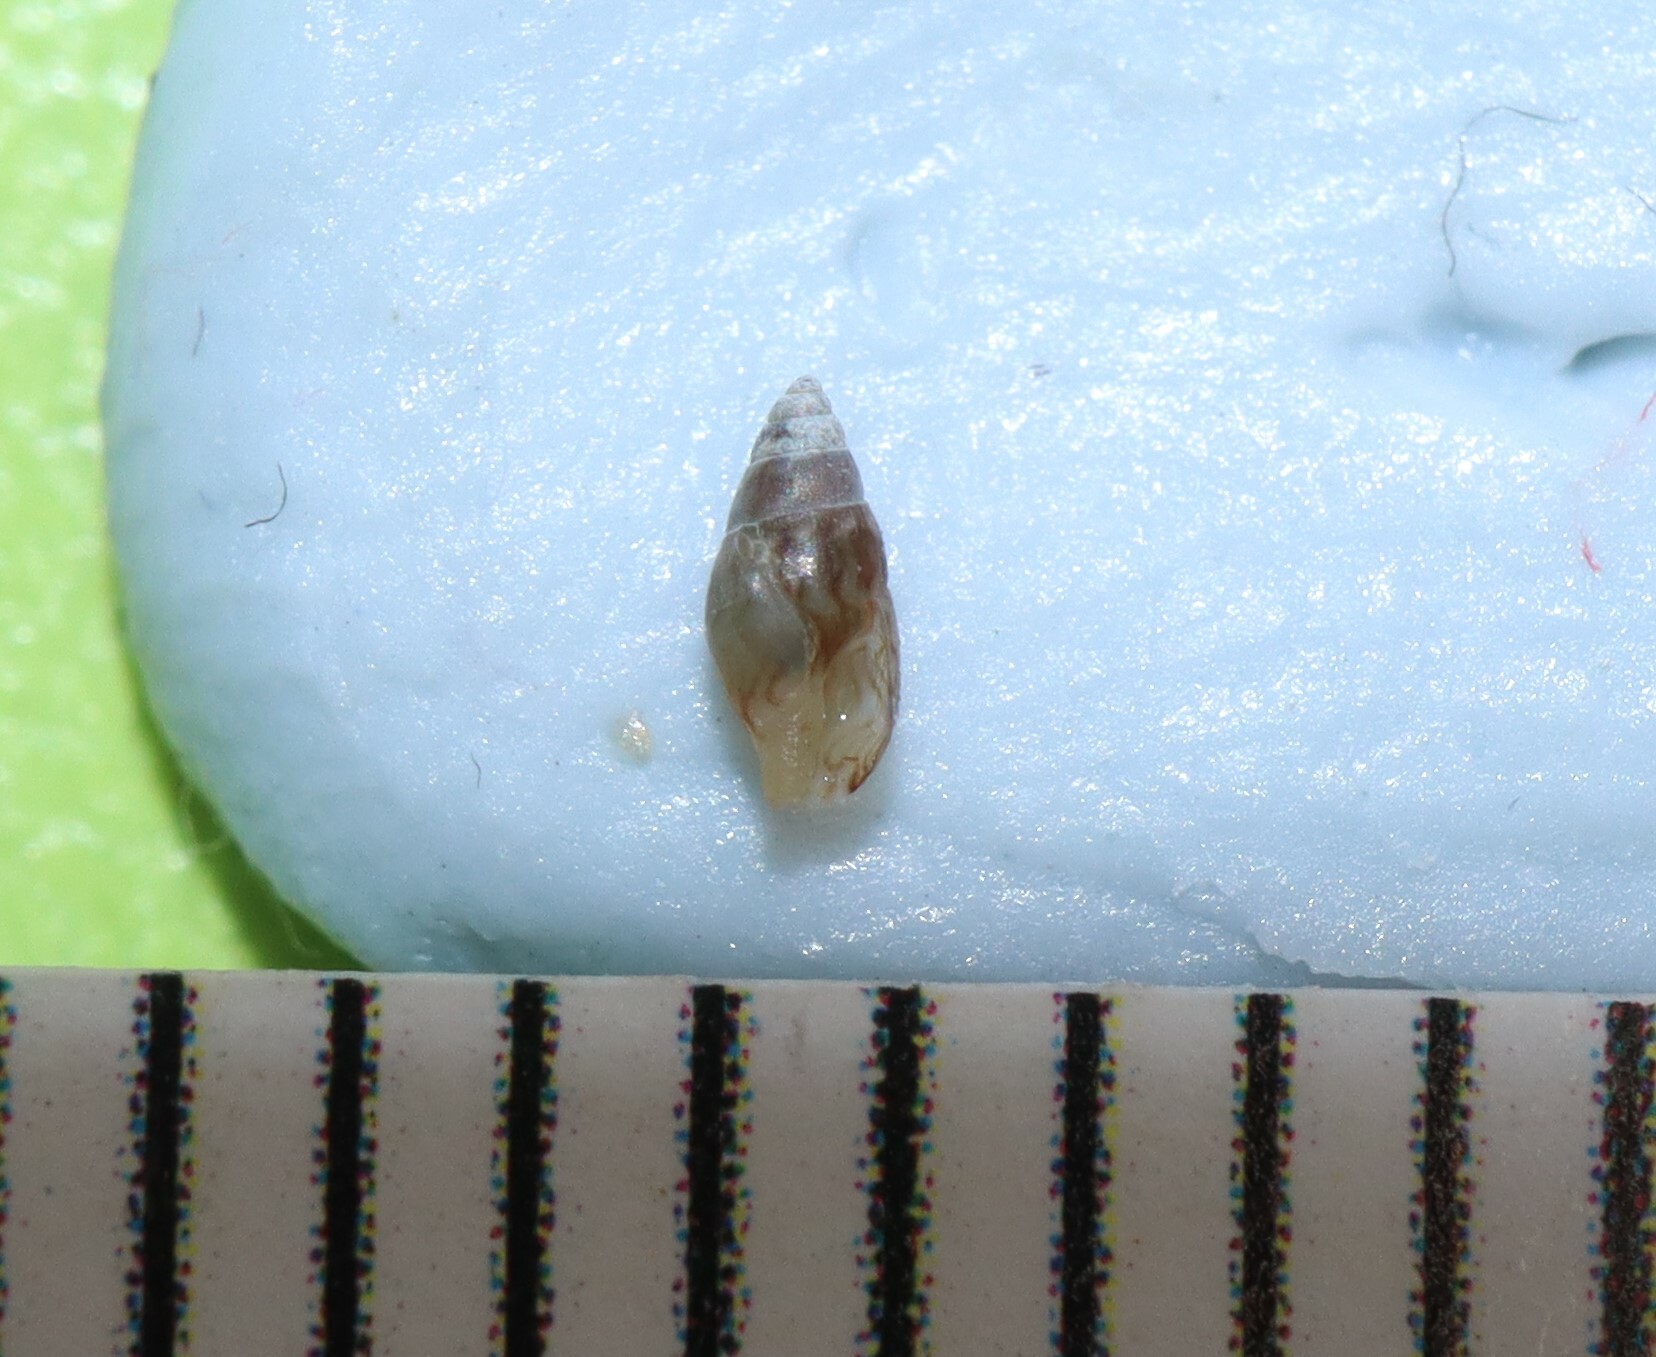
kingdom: Animalia
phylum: Mollusca
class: Gastropoda
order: Neogastropoda
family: Columbellidae
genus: Anachis
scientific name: Anachis atkinsoni
